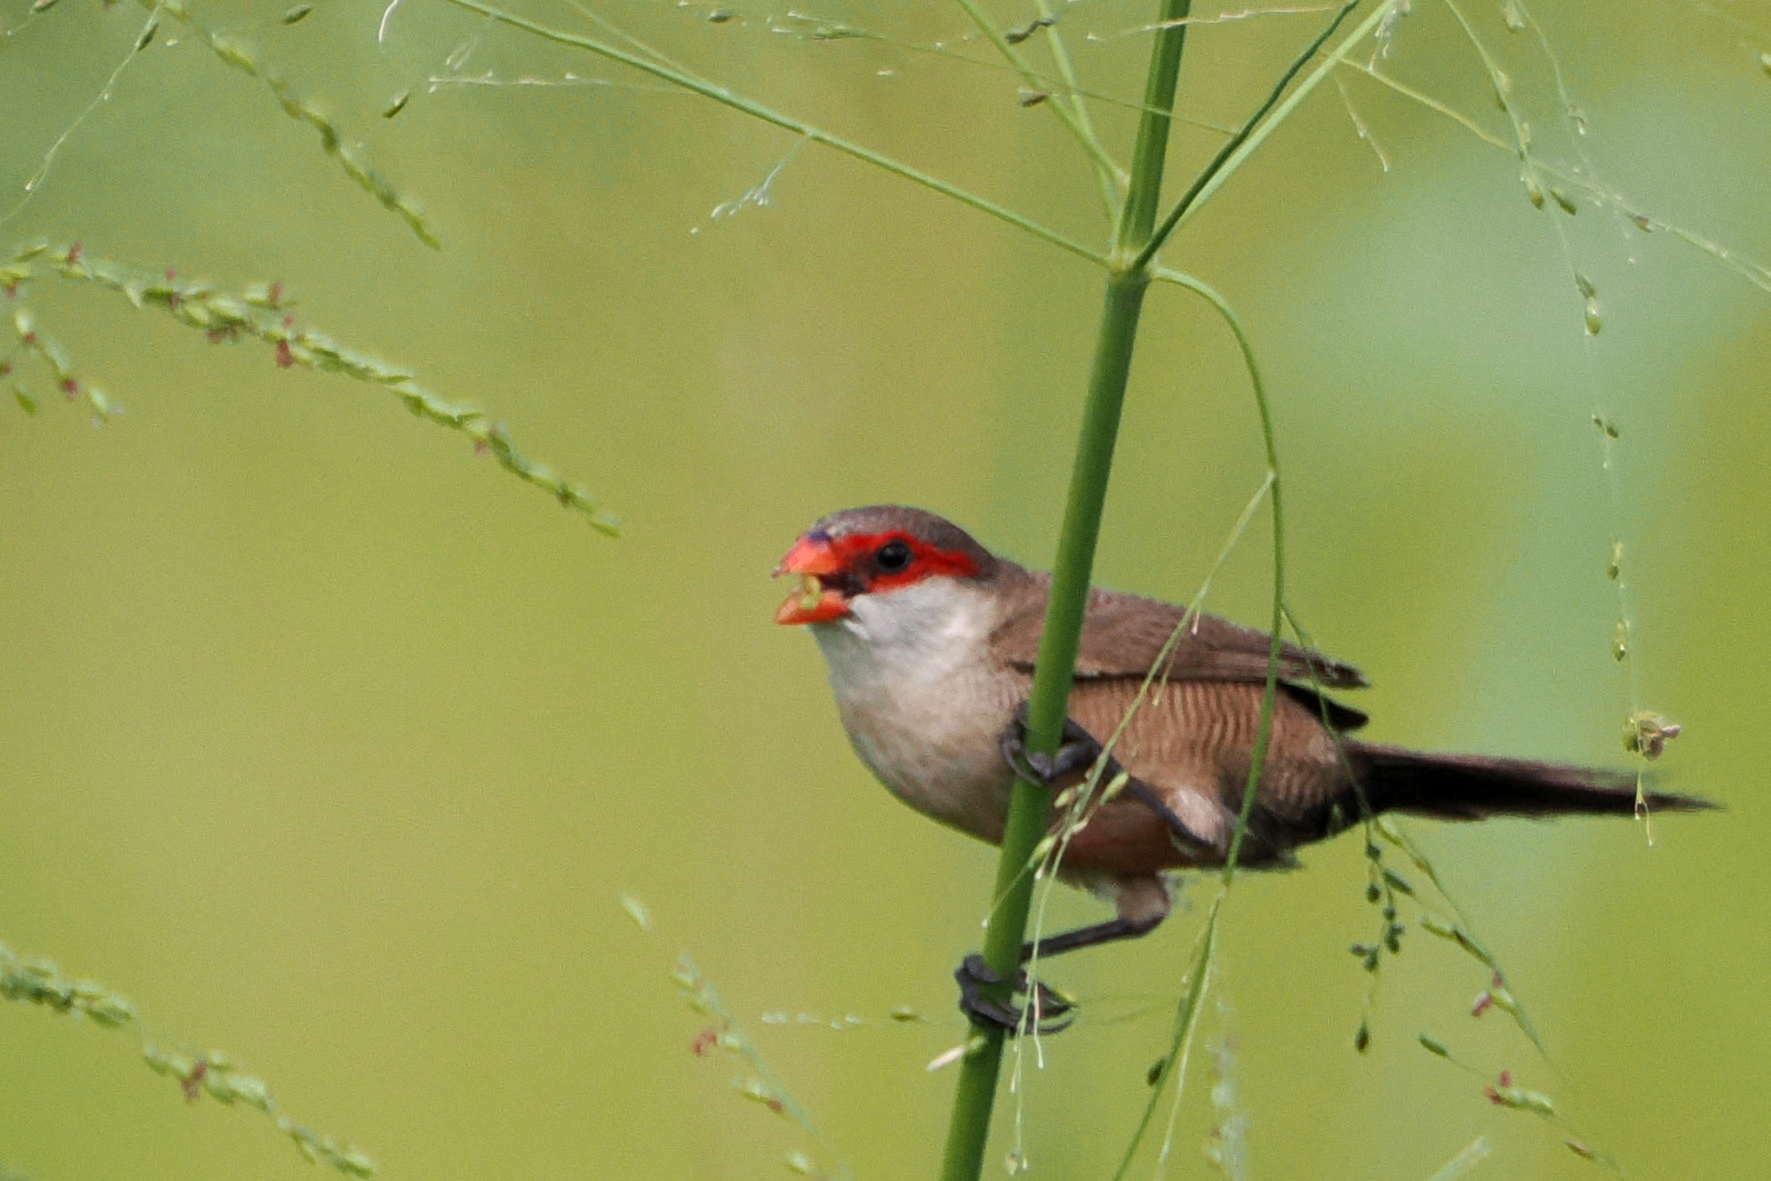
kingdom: Animalia
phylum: Chordata
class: Aves
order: Passeriformes
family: Estrildidae
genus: Estrilda
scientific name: Estrilda astrild
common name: Common waxbill
